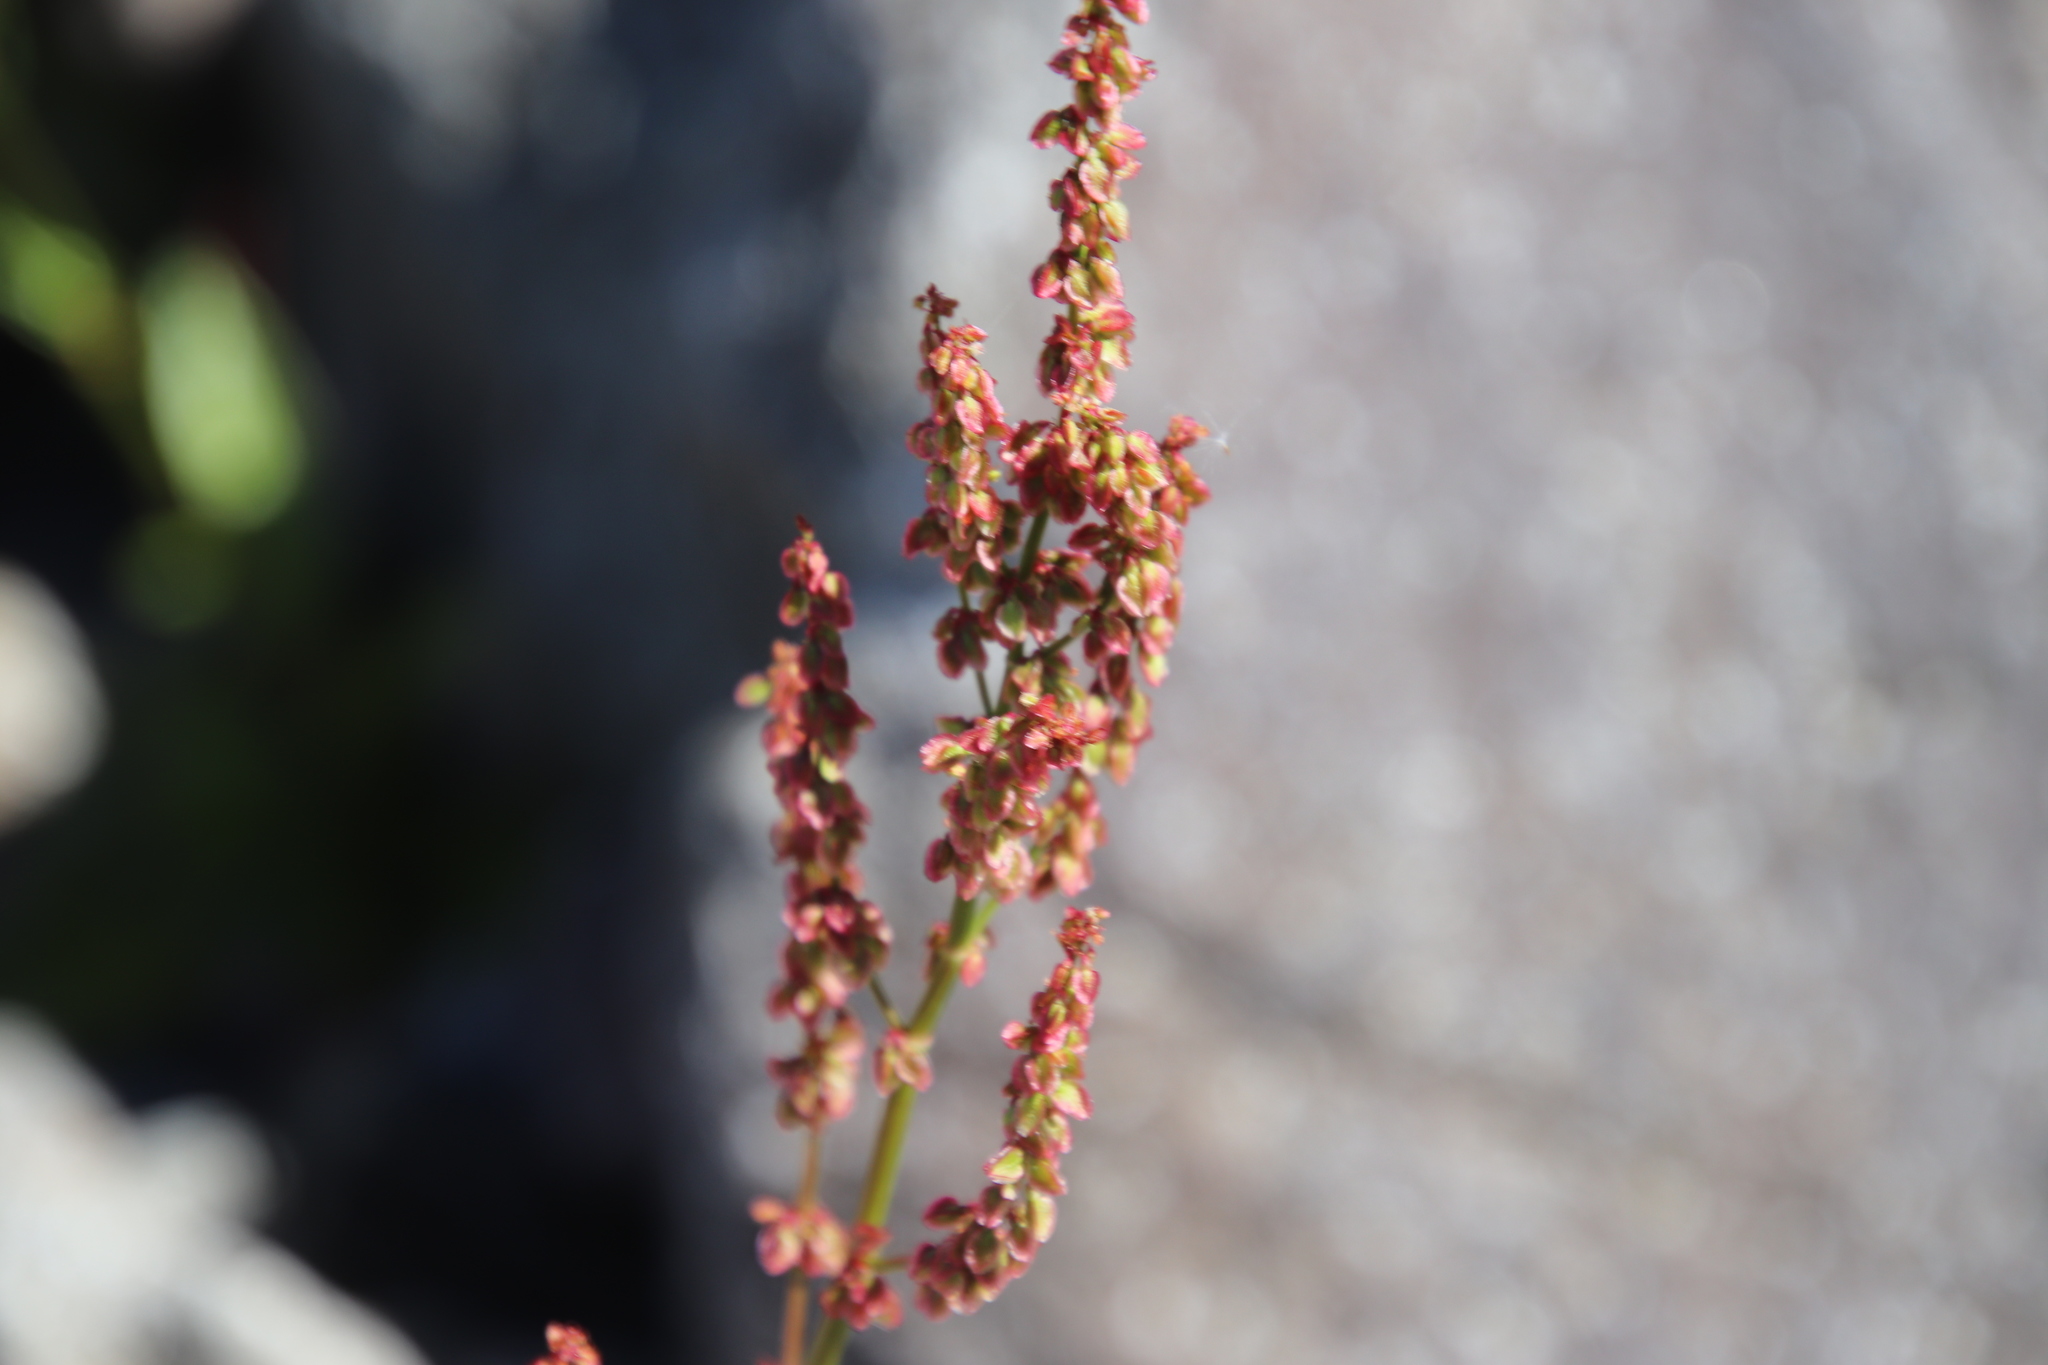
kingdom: Plantae
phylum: Tracheophyta
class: Magnoliopsida
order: Caryophyllales
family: Polygonaceae
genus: Rumex
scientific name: Rumex acetosa
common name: Garden sorrel
